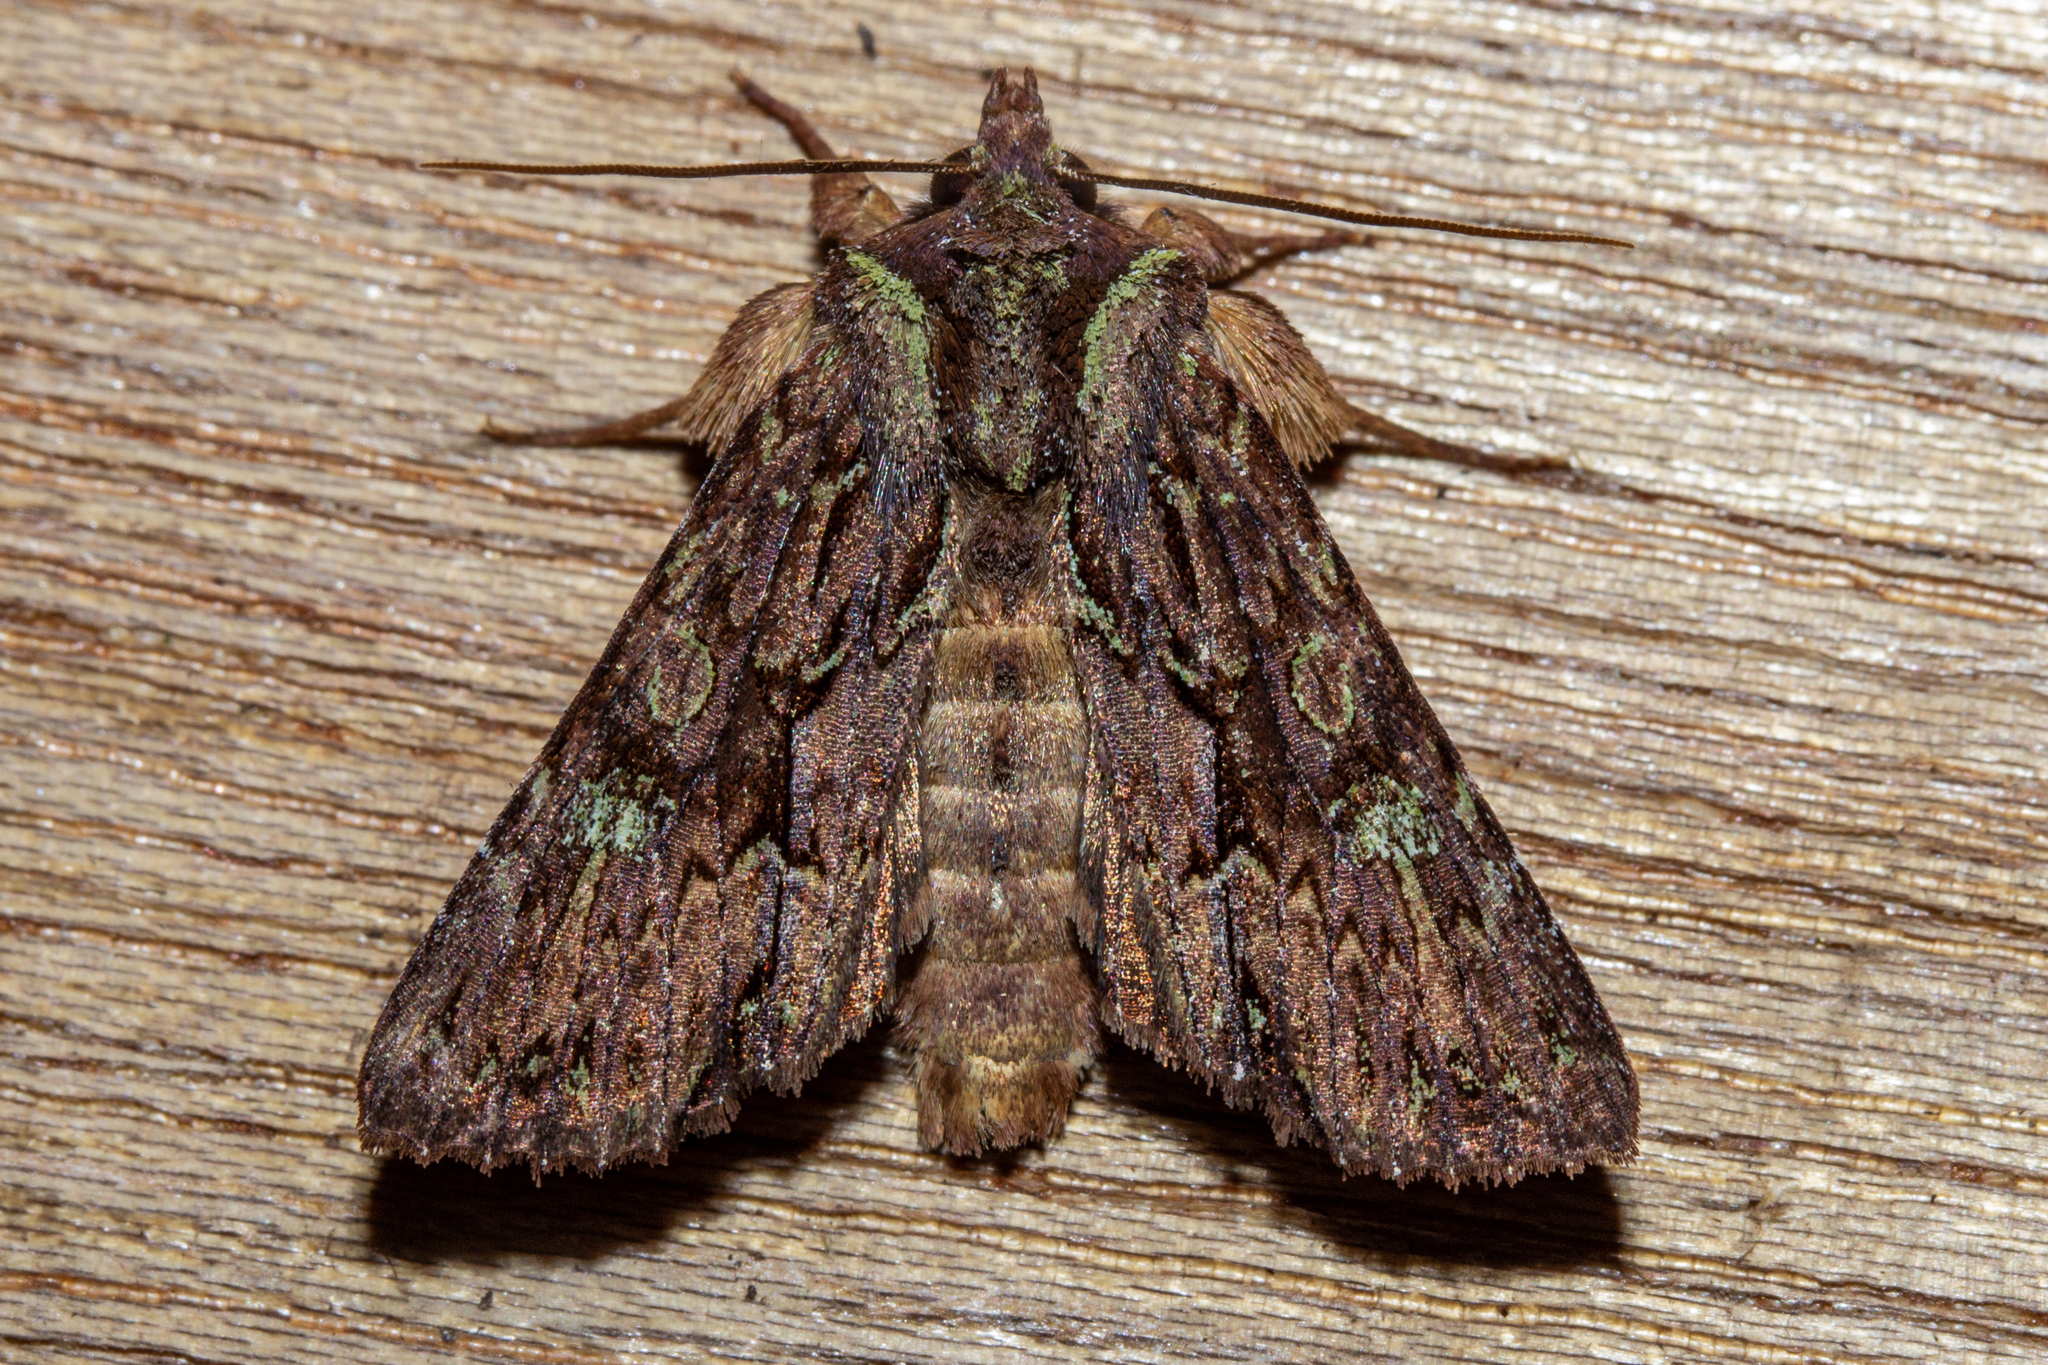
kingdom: Animalia
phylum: Arthropoda
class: Insecta
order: Lepidoptera
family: Noctuidae
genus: Meterana
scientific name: Meterana diatmeta
